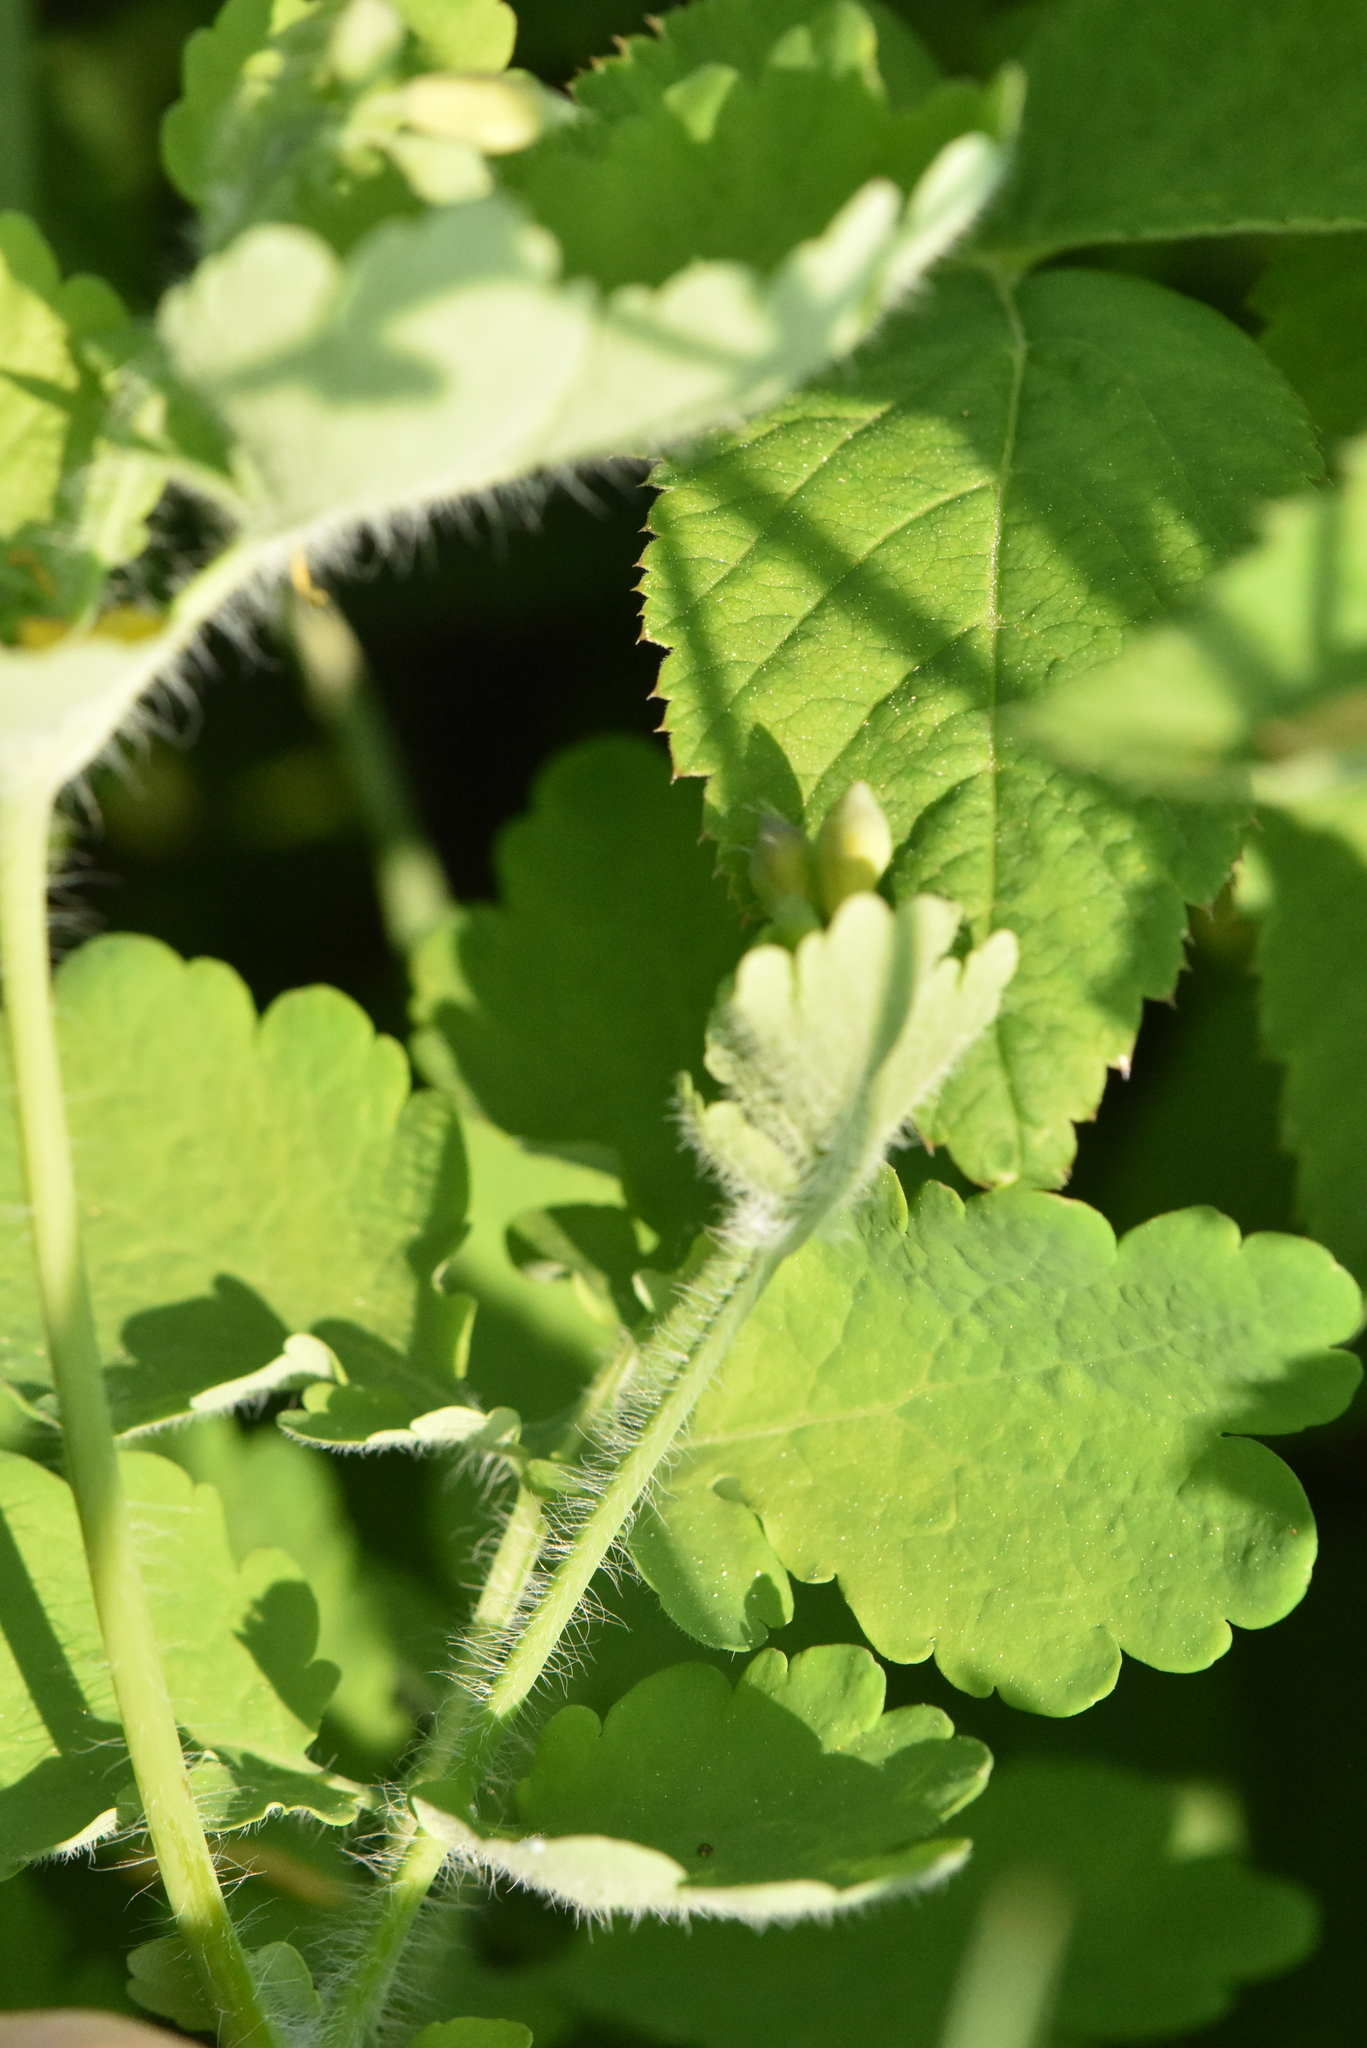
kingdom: Plantae
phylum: Tracheophyta
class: Magnoliopsida
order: Ranunculales
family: Papaveraceae
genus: Chelidonium
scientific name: Chelidonium majus
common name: Greater celandine
